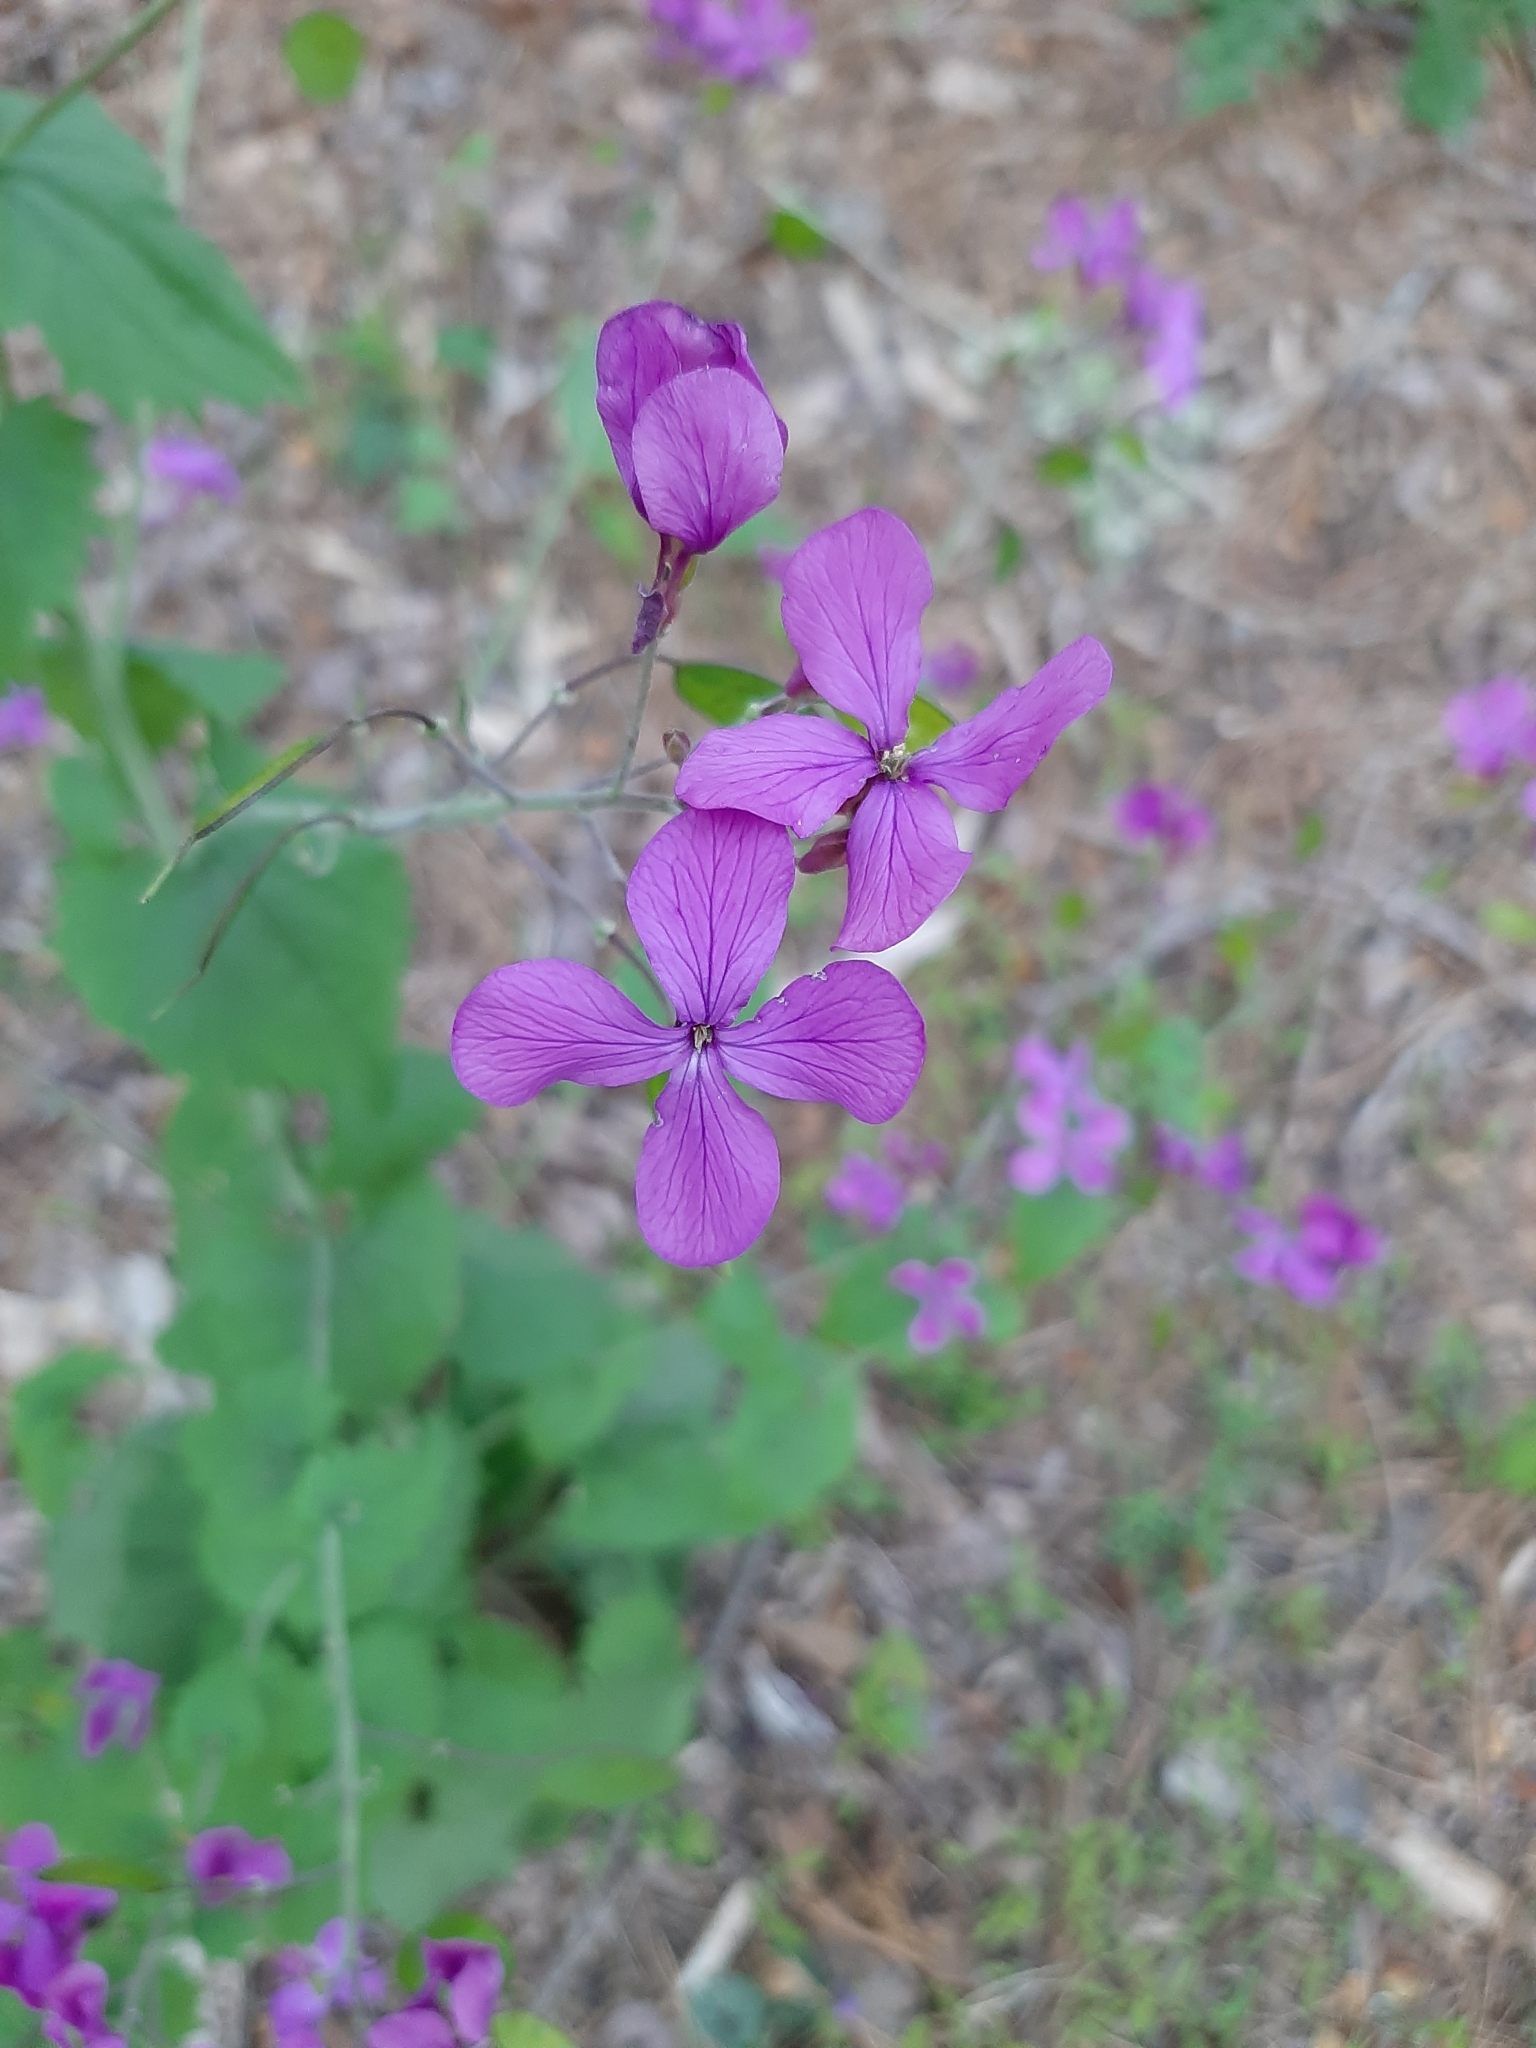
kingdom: Plantae
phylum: Tracheophyta
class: Magnoliopsida
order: Brassicales
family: Brassicaceae
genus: Lunaria
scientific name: Lunaria annua
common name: Honesty
